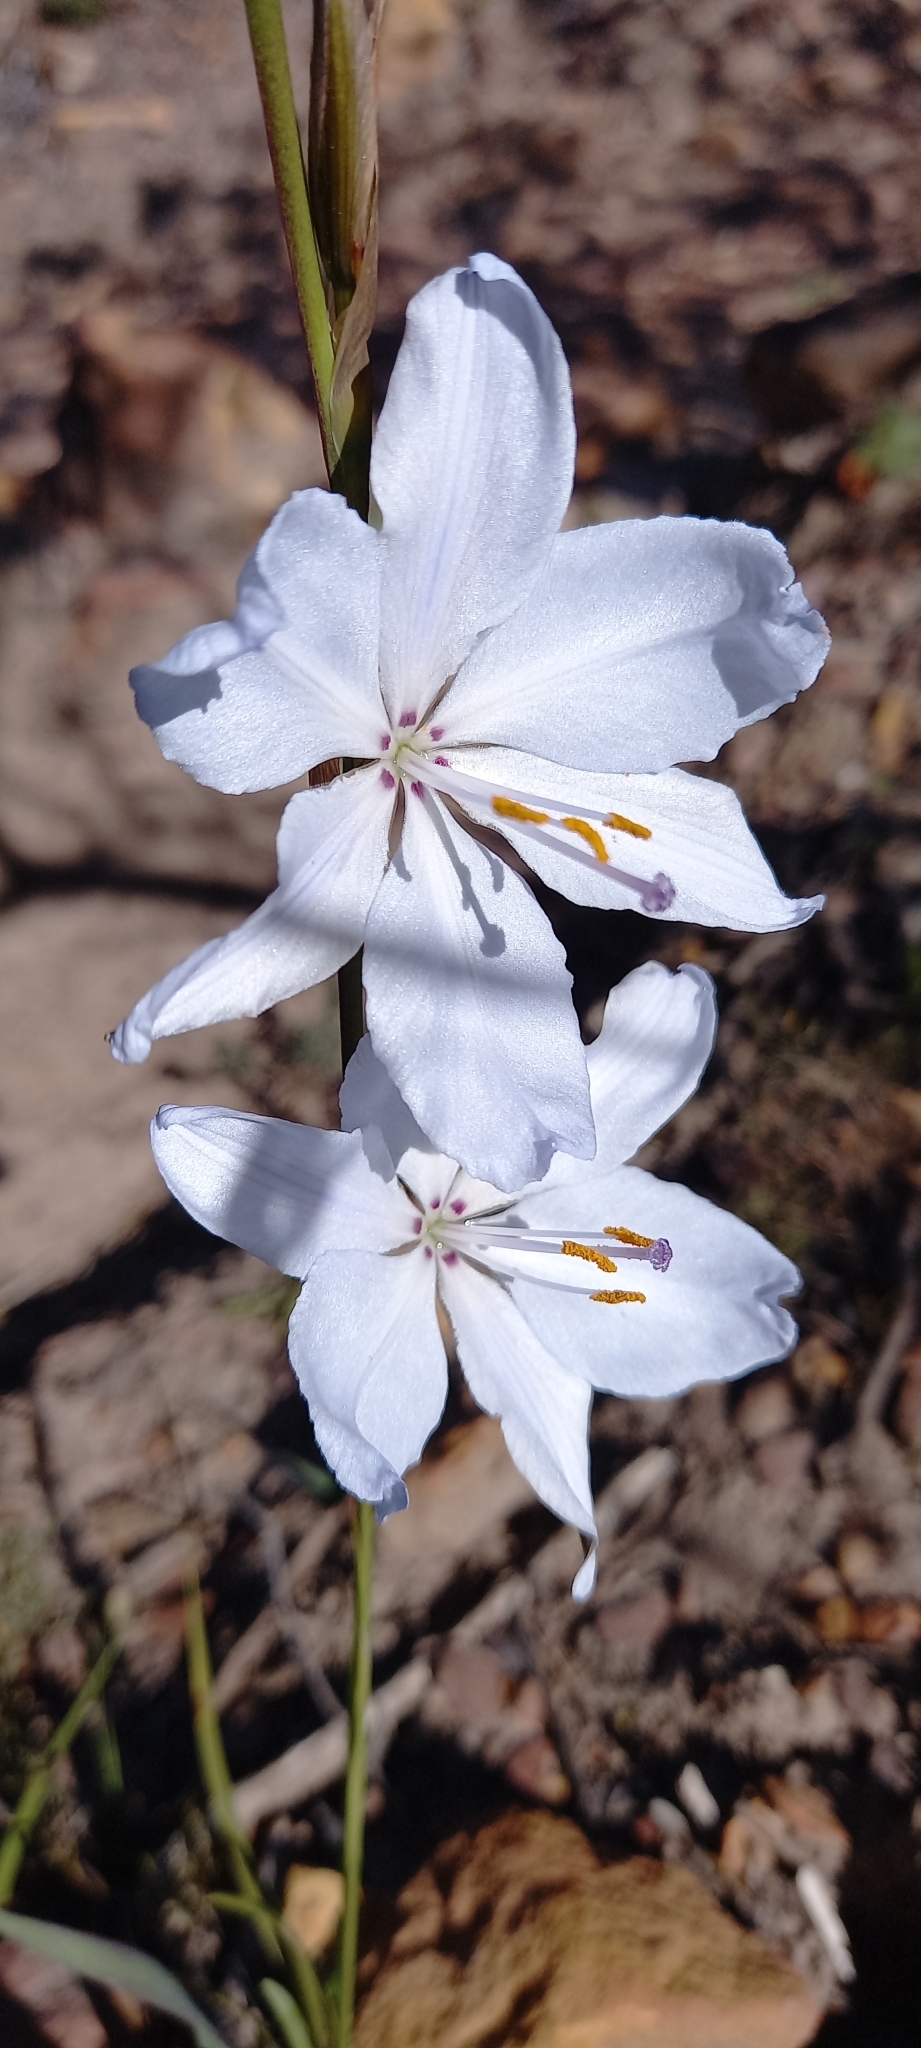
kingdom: Plantae
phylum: Tracheophyta
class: Liliopsida
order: Asparagales
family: Iridaceae
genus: Aristea
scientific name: Aristea spiralis
